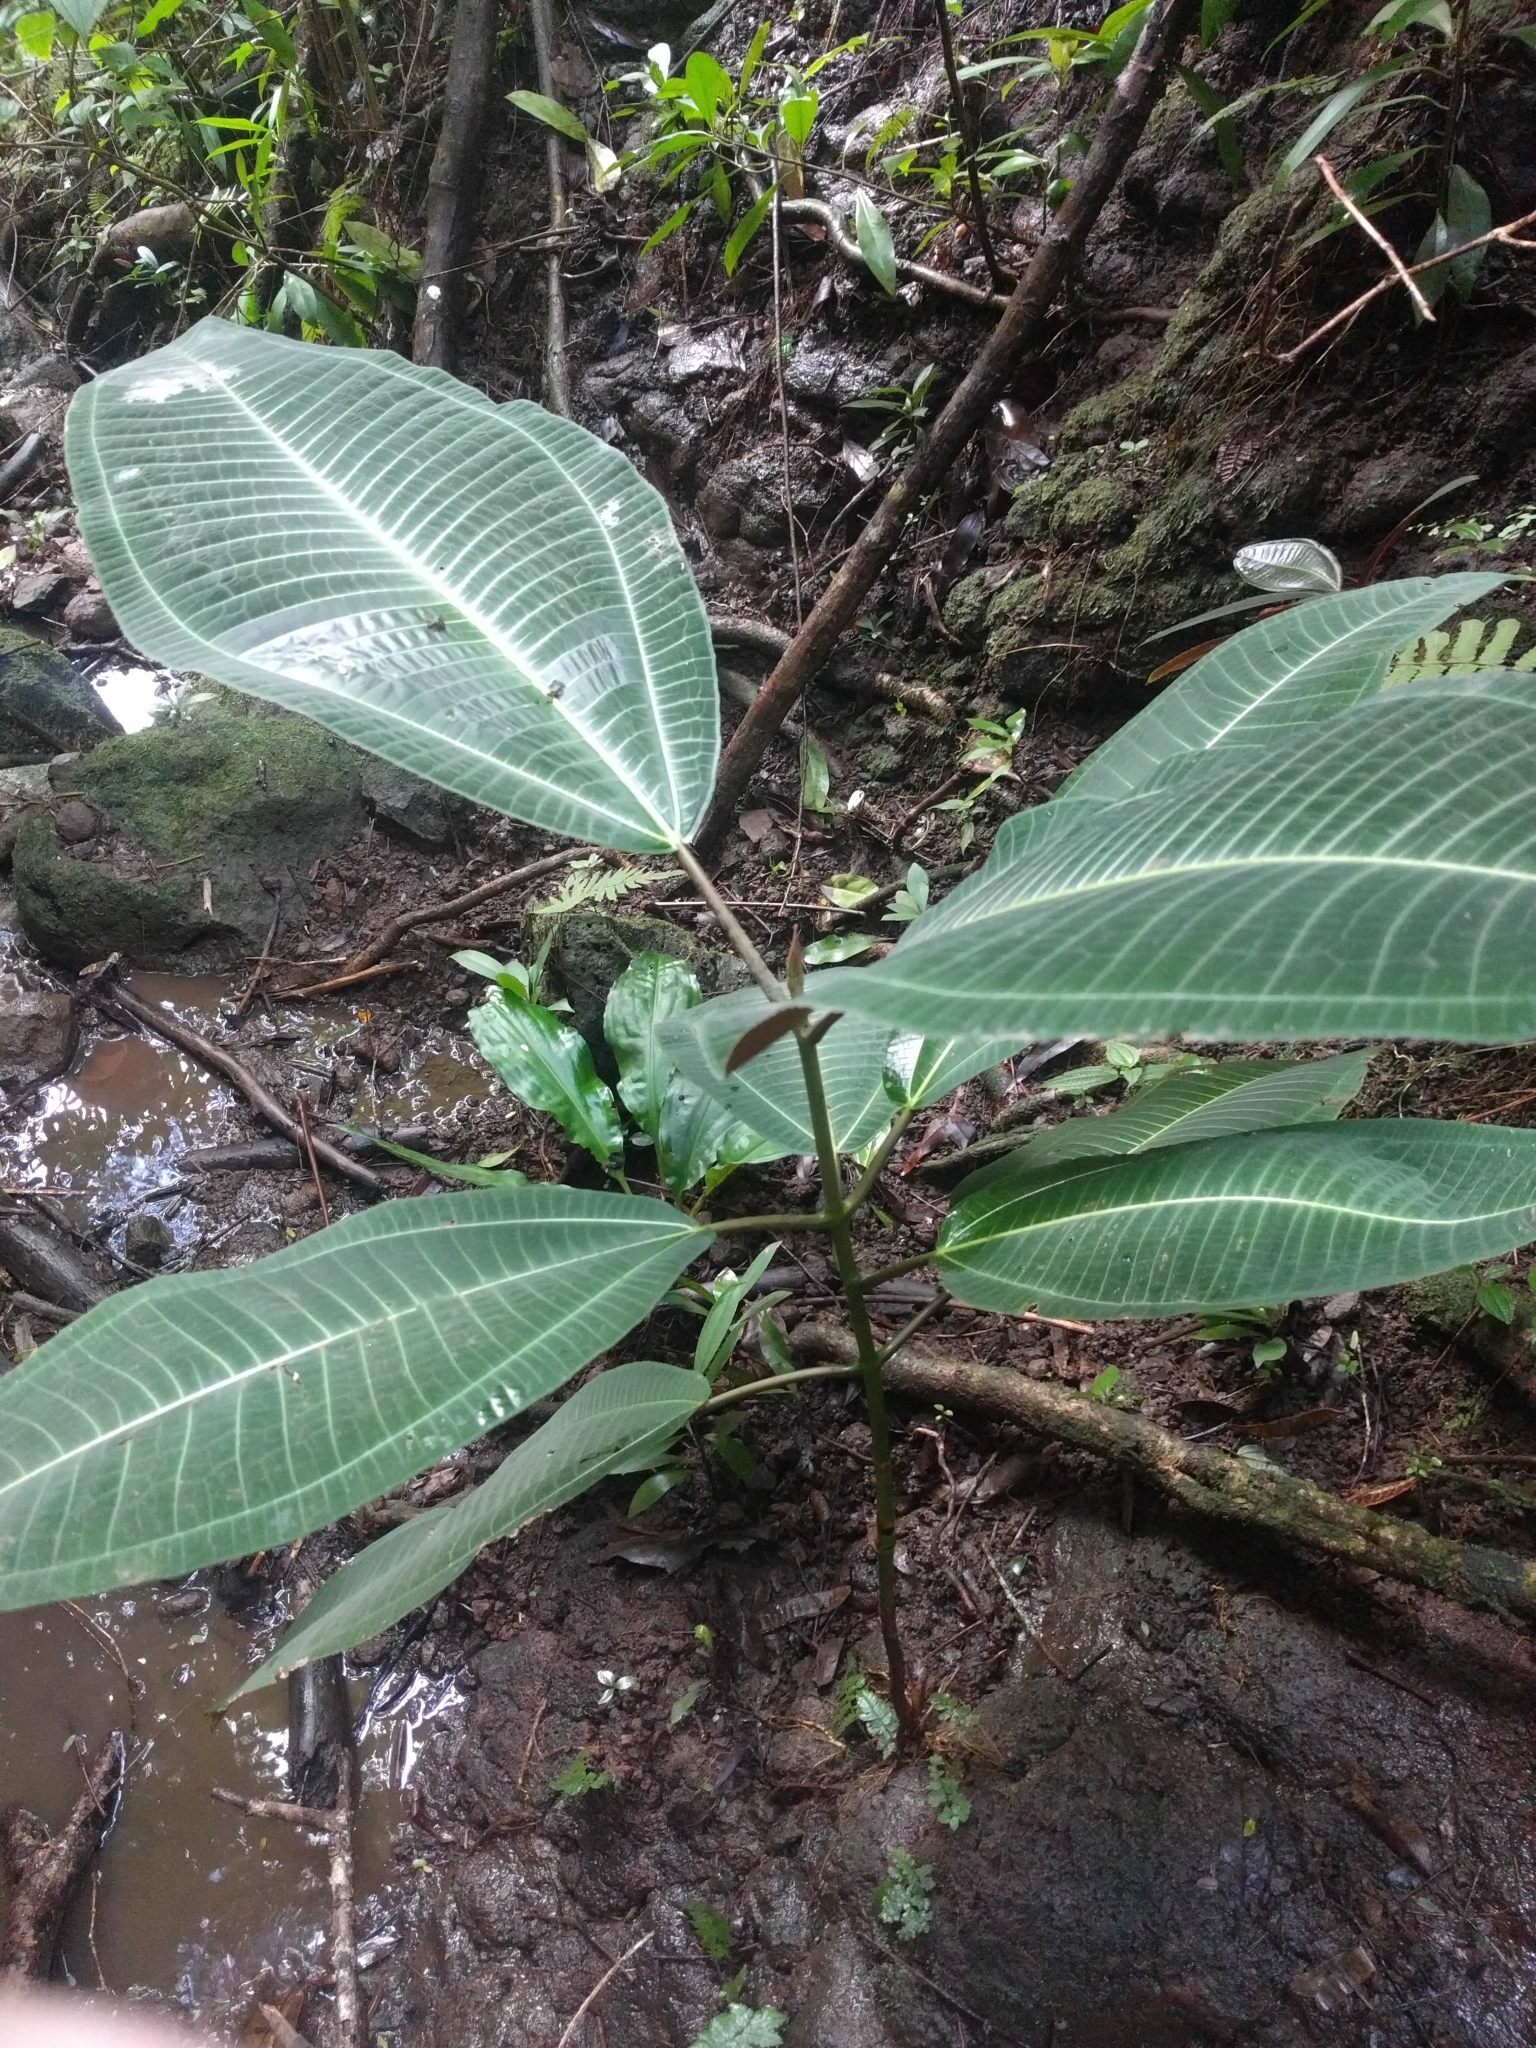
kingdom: Plantae
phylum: Tracheophyta
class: Magnoliopsida
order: Myrtales
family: Melastomataceae
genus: Miconia
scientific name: Miconia calvescens
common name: Purple plague
